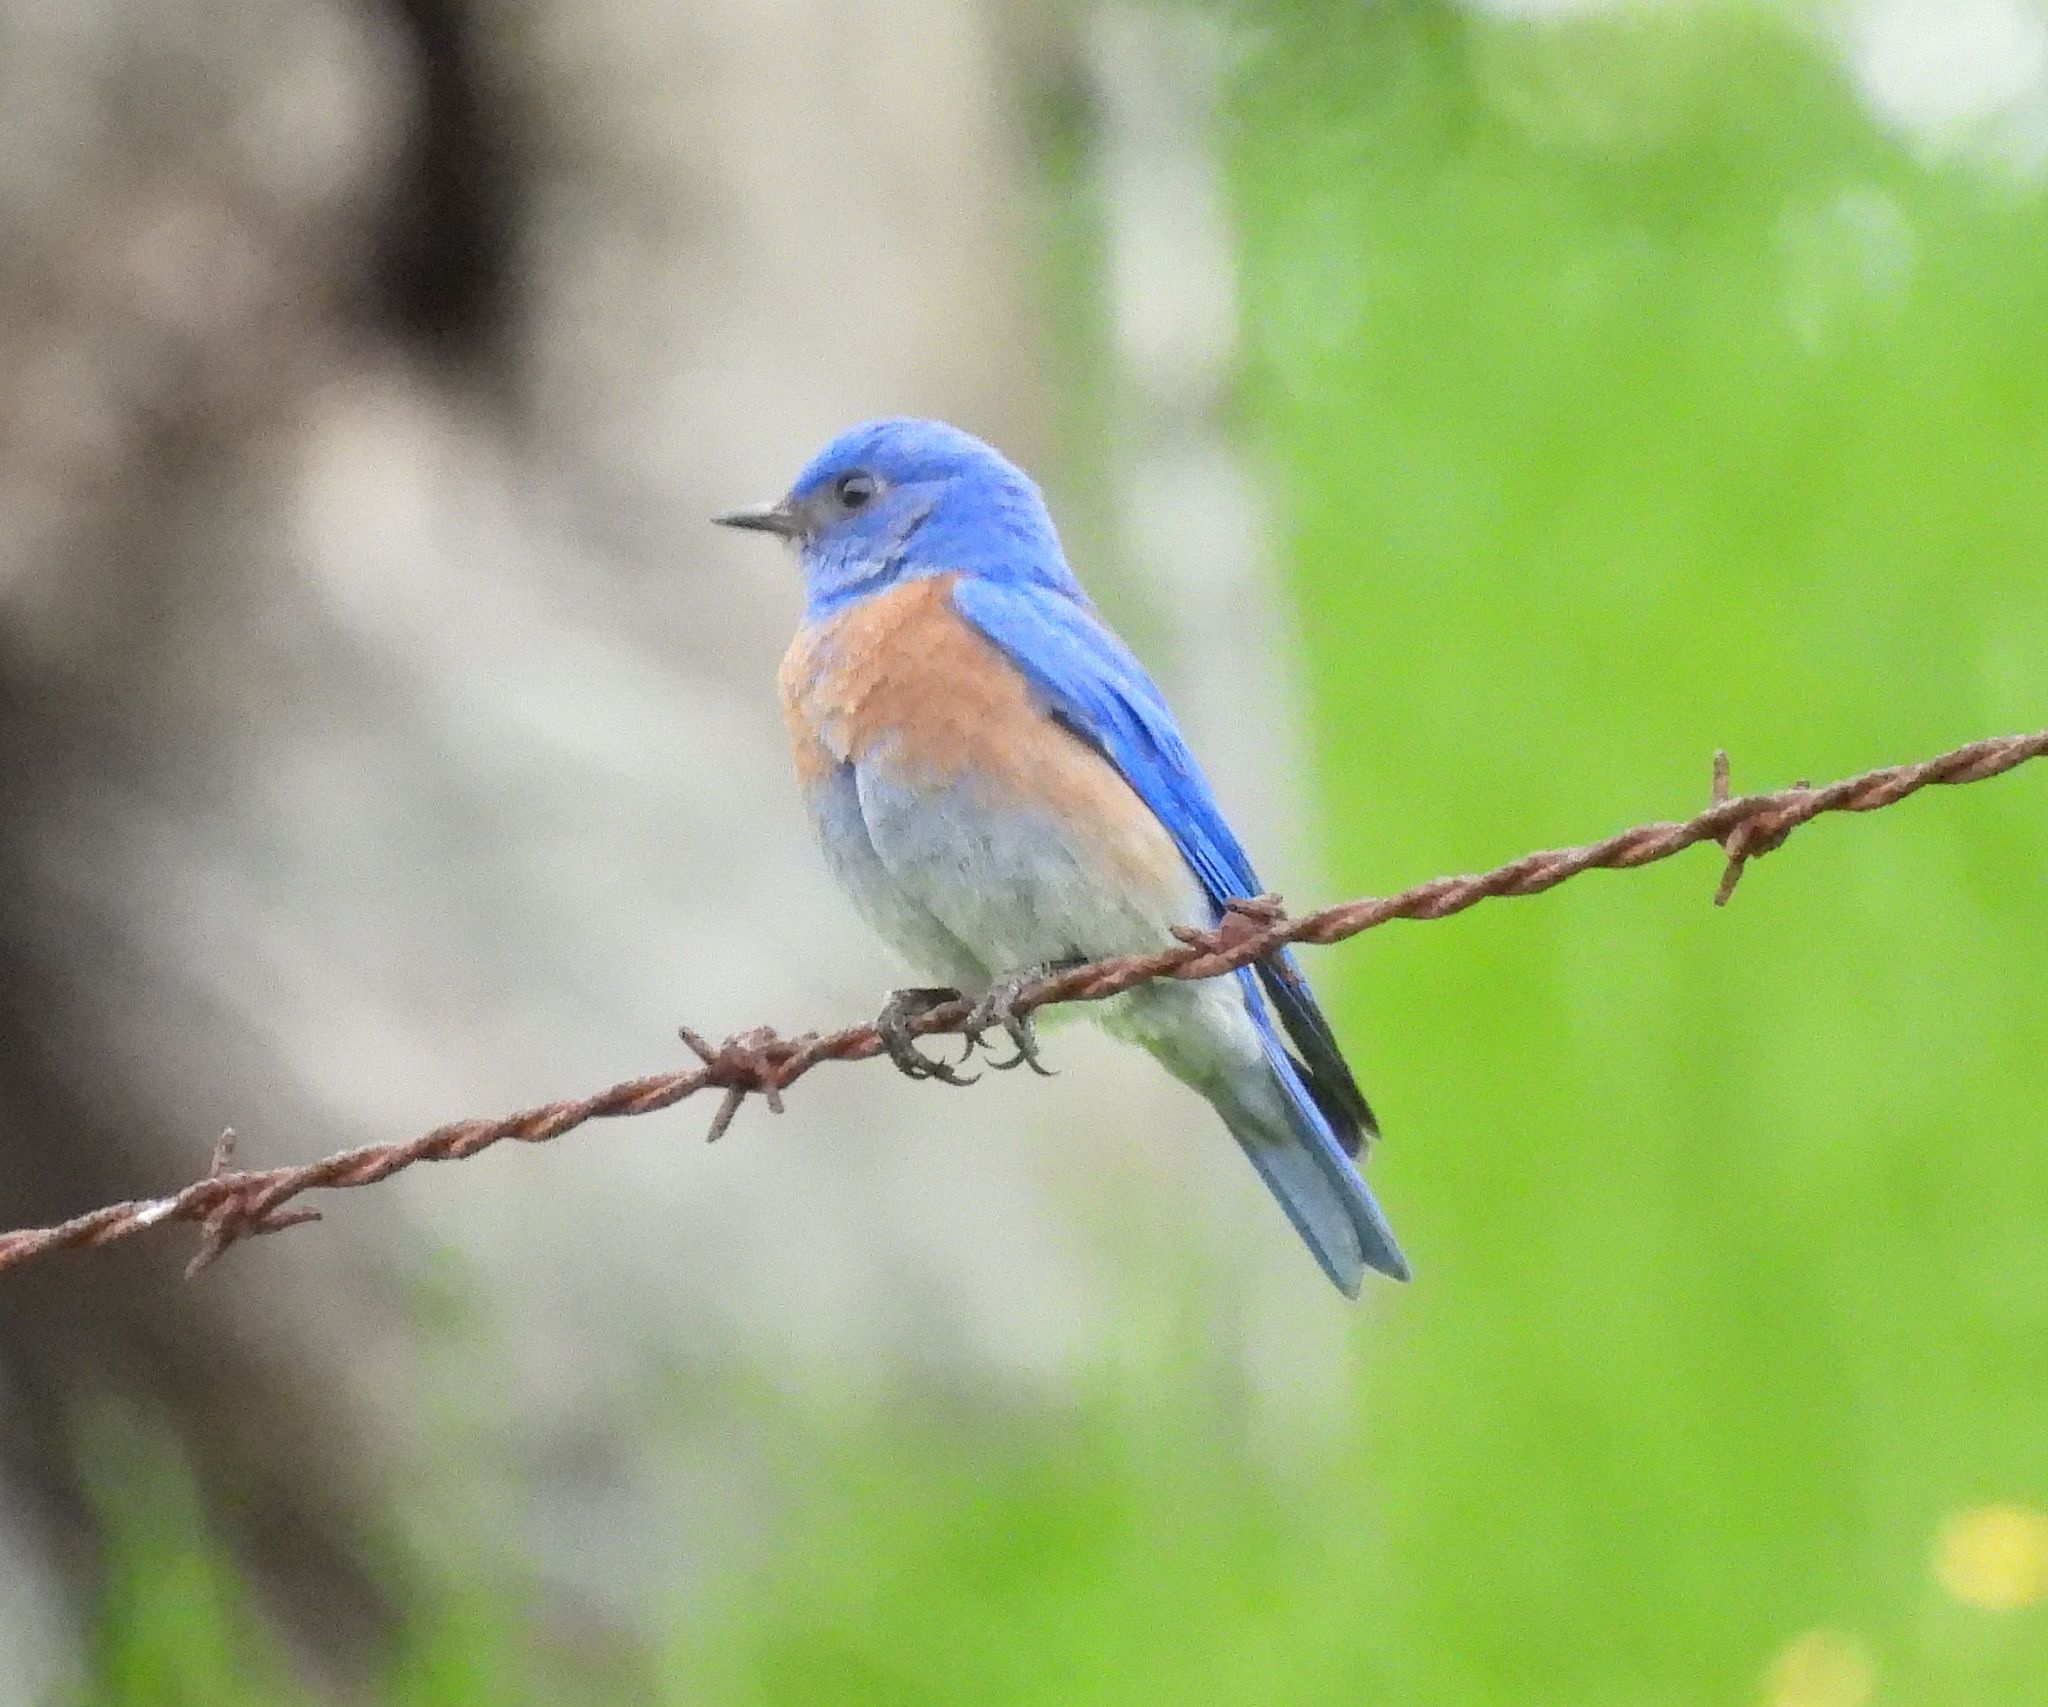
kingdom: Animalia
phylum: Chordata
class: Aves
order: Passeriformes
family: Turdidae
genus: Sialia
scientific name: Sialia mexicana
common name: Western bluebird
